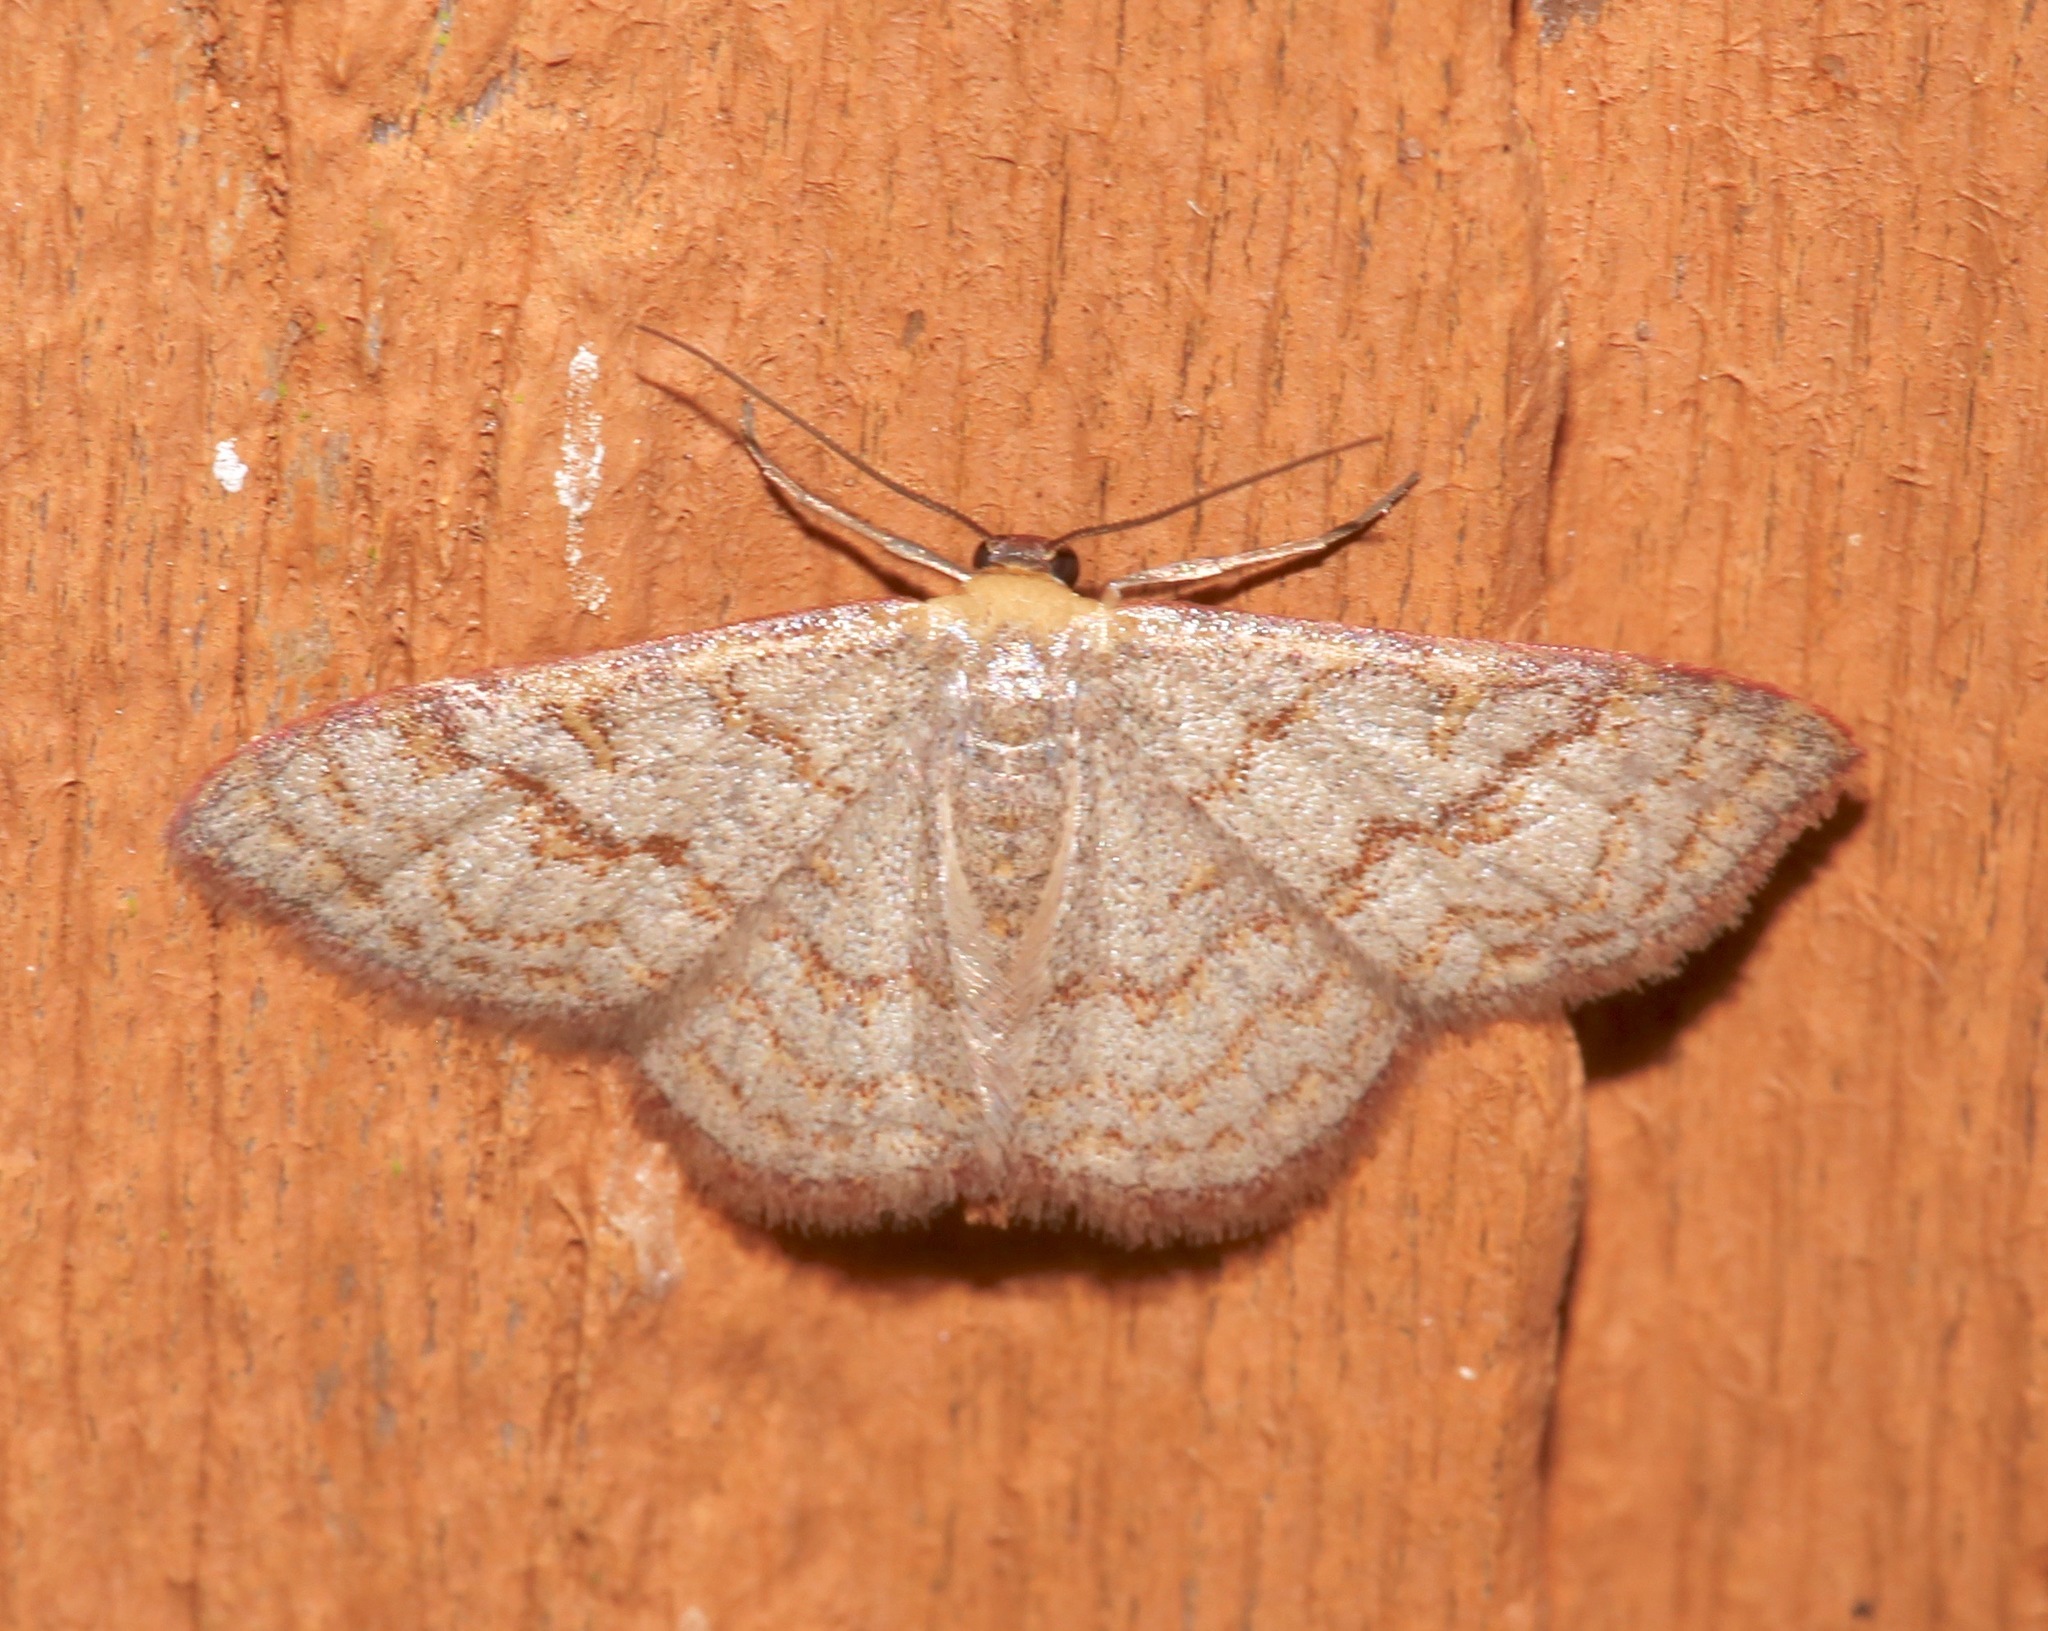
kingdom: Animalia
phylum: Arthropoda
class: Insecta
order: Lepidoptera
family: Geometridae
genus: Leptostales
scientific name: Leptostales pannaria
